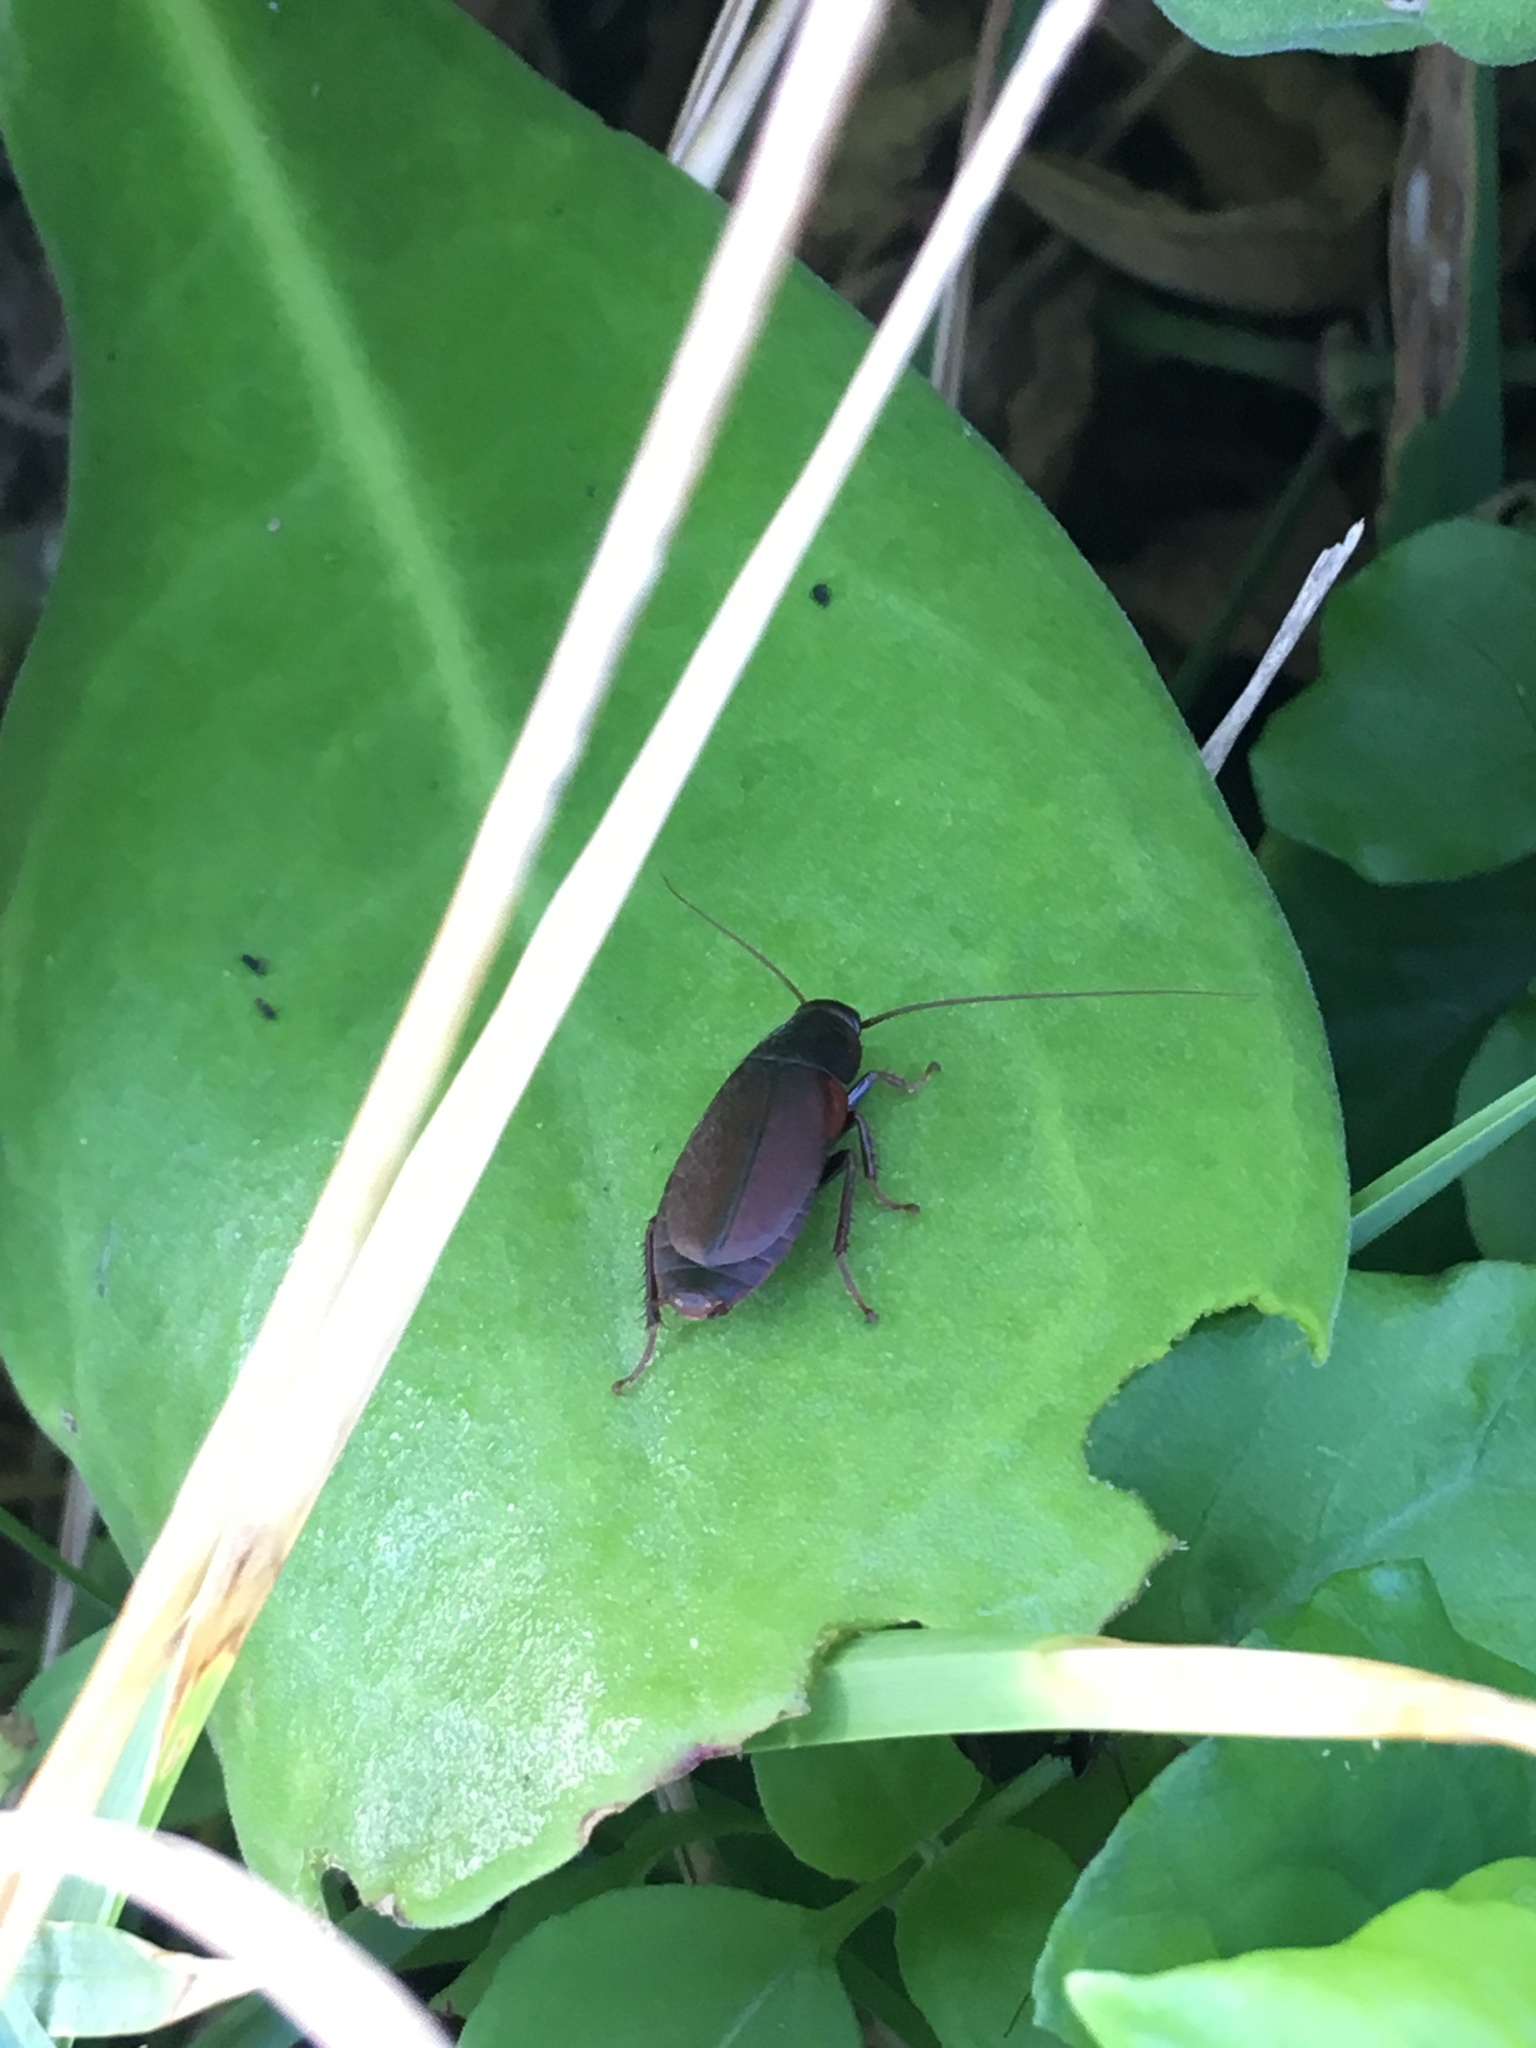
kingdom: Animalia
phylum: Arthropoda
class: Insecta
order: Blattodea
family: Blaberidae
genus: Diploptera
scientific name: Diploptera punctata
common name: Pacific beetle cockroach
